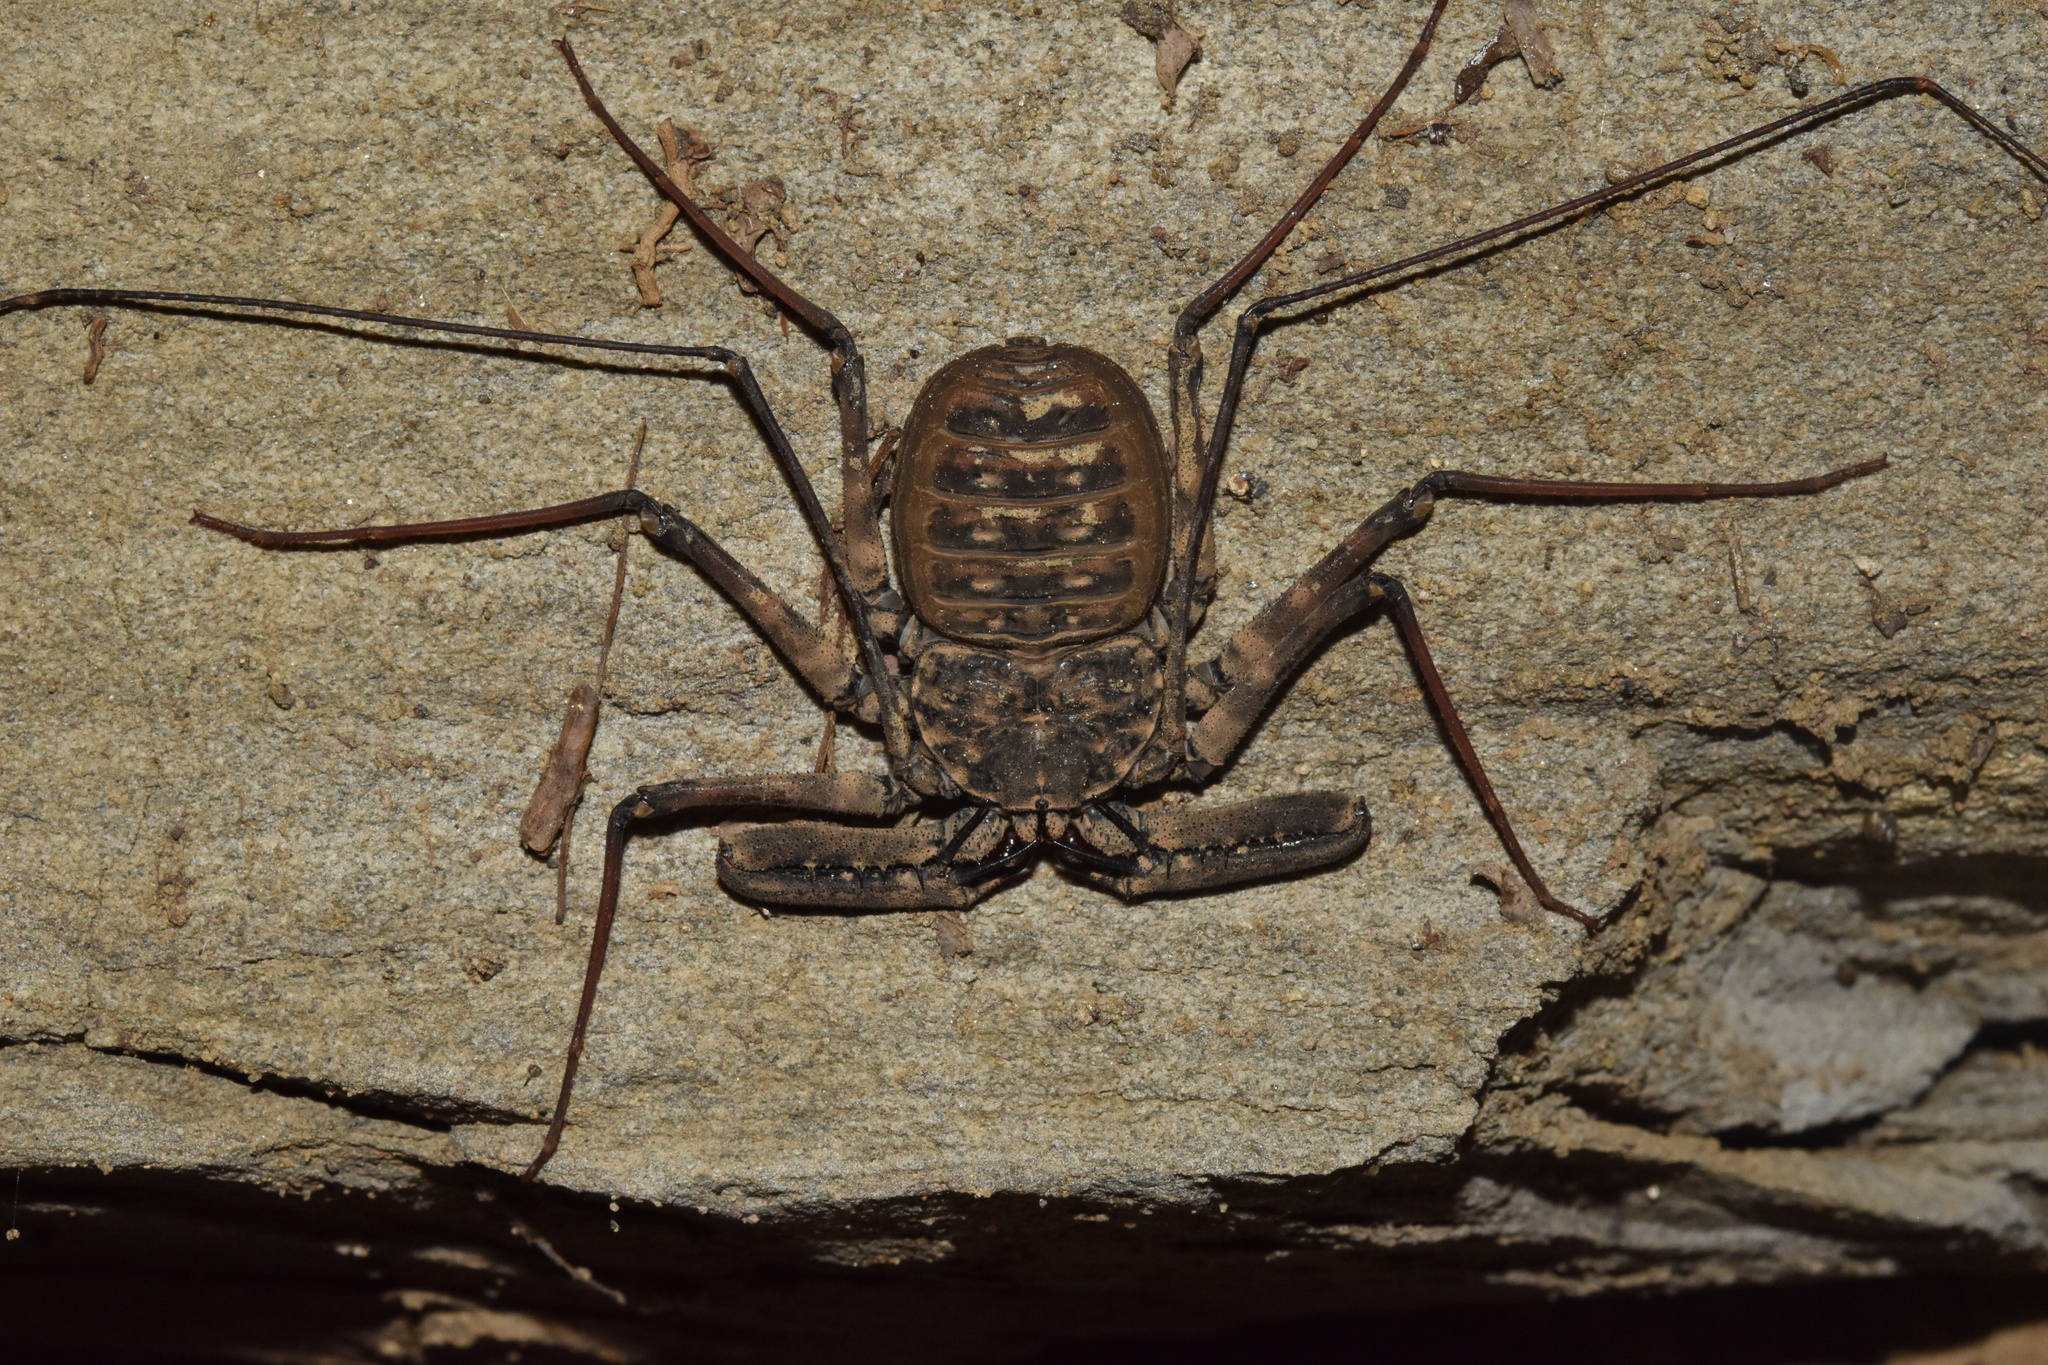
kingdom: Animalia
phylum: Arthropoda
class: Arachnida
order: Amblypygi
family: Phrynichidae
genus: Damon
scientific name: Damon annulatipes
